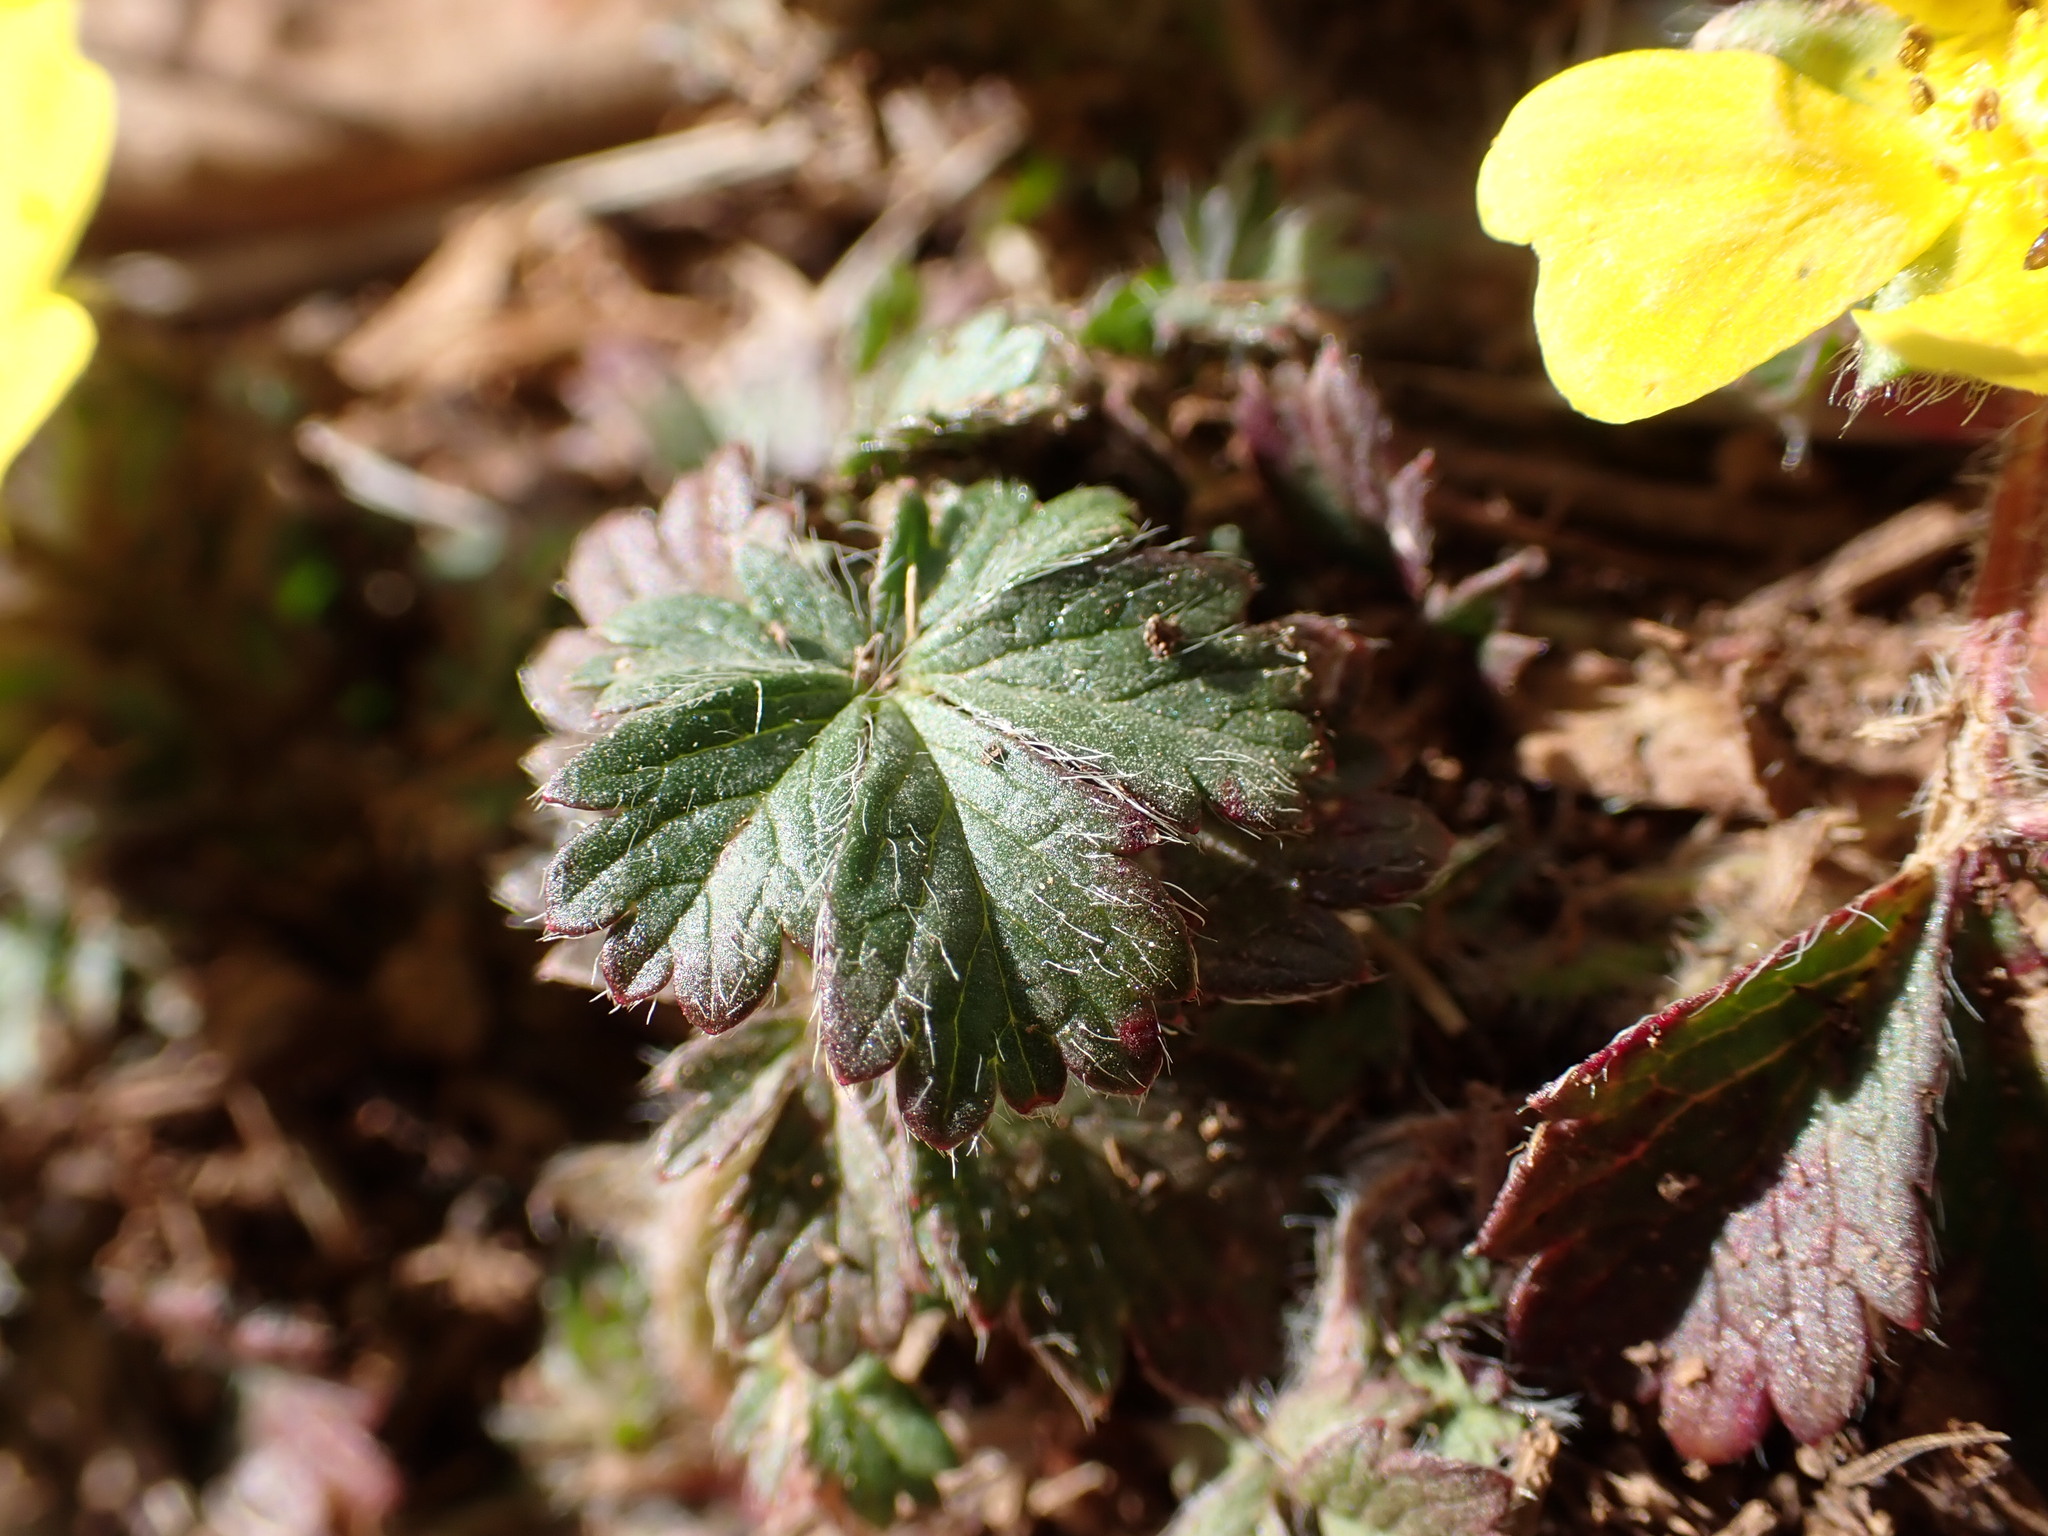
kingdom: Plantae
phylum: Tracheophyta
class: Magnoliopsida
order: Rosales
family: Rosaceae
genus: Potentilla
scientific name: Potentilla verna
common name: Spring cinquefoil
